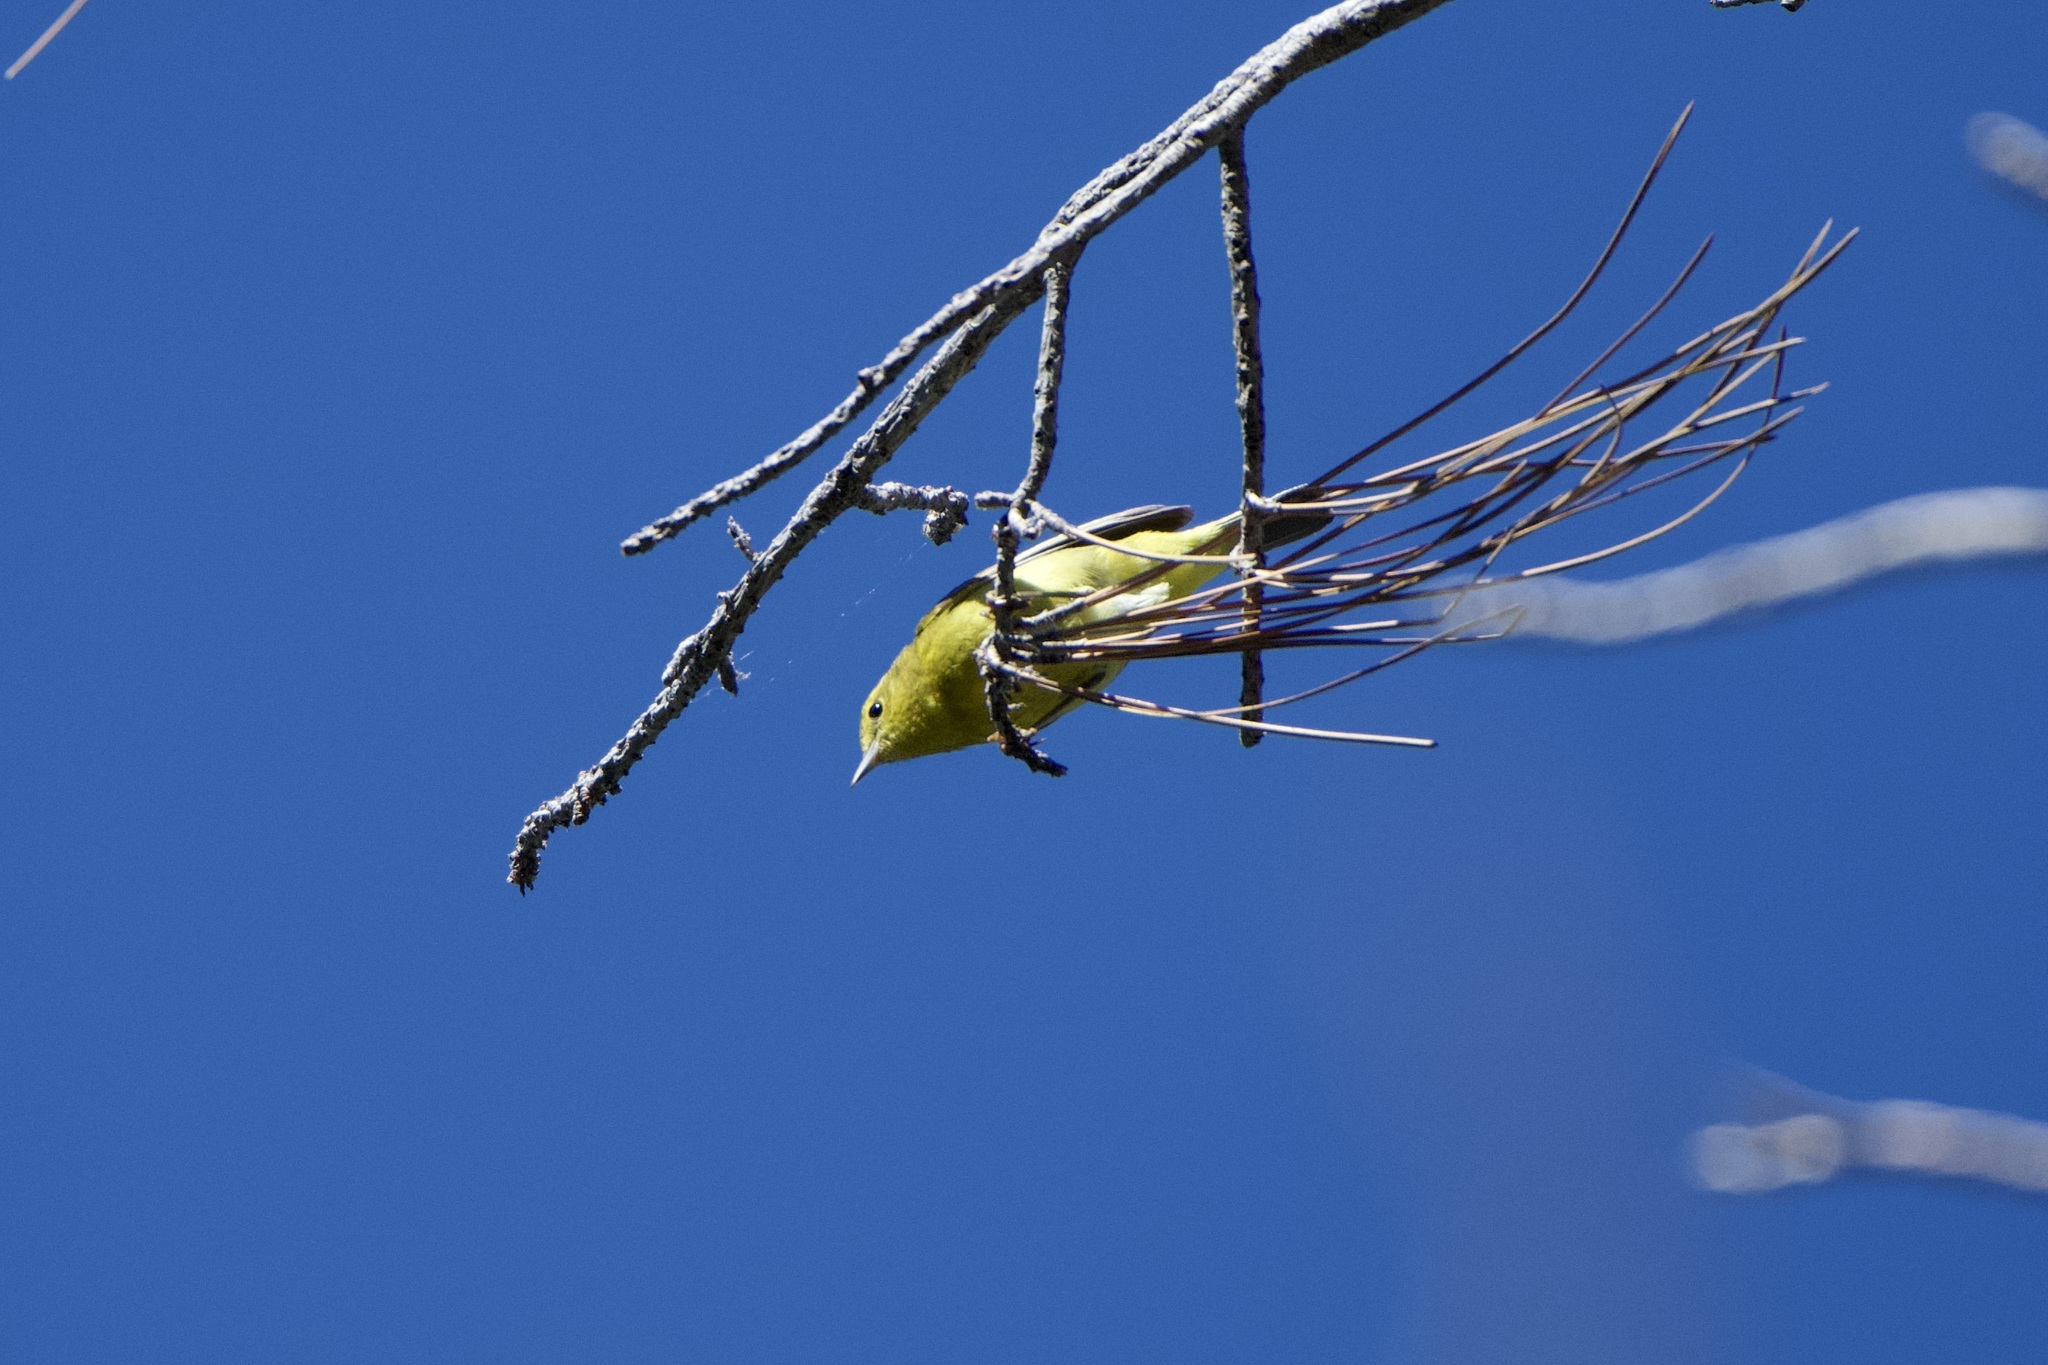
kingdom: Animalia
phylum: Chordata
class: Aves
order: Passeriformes
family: Parulidae
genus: Leiothlypis
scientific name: Leiothlypis celata
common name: Orange-crowned warbler
